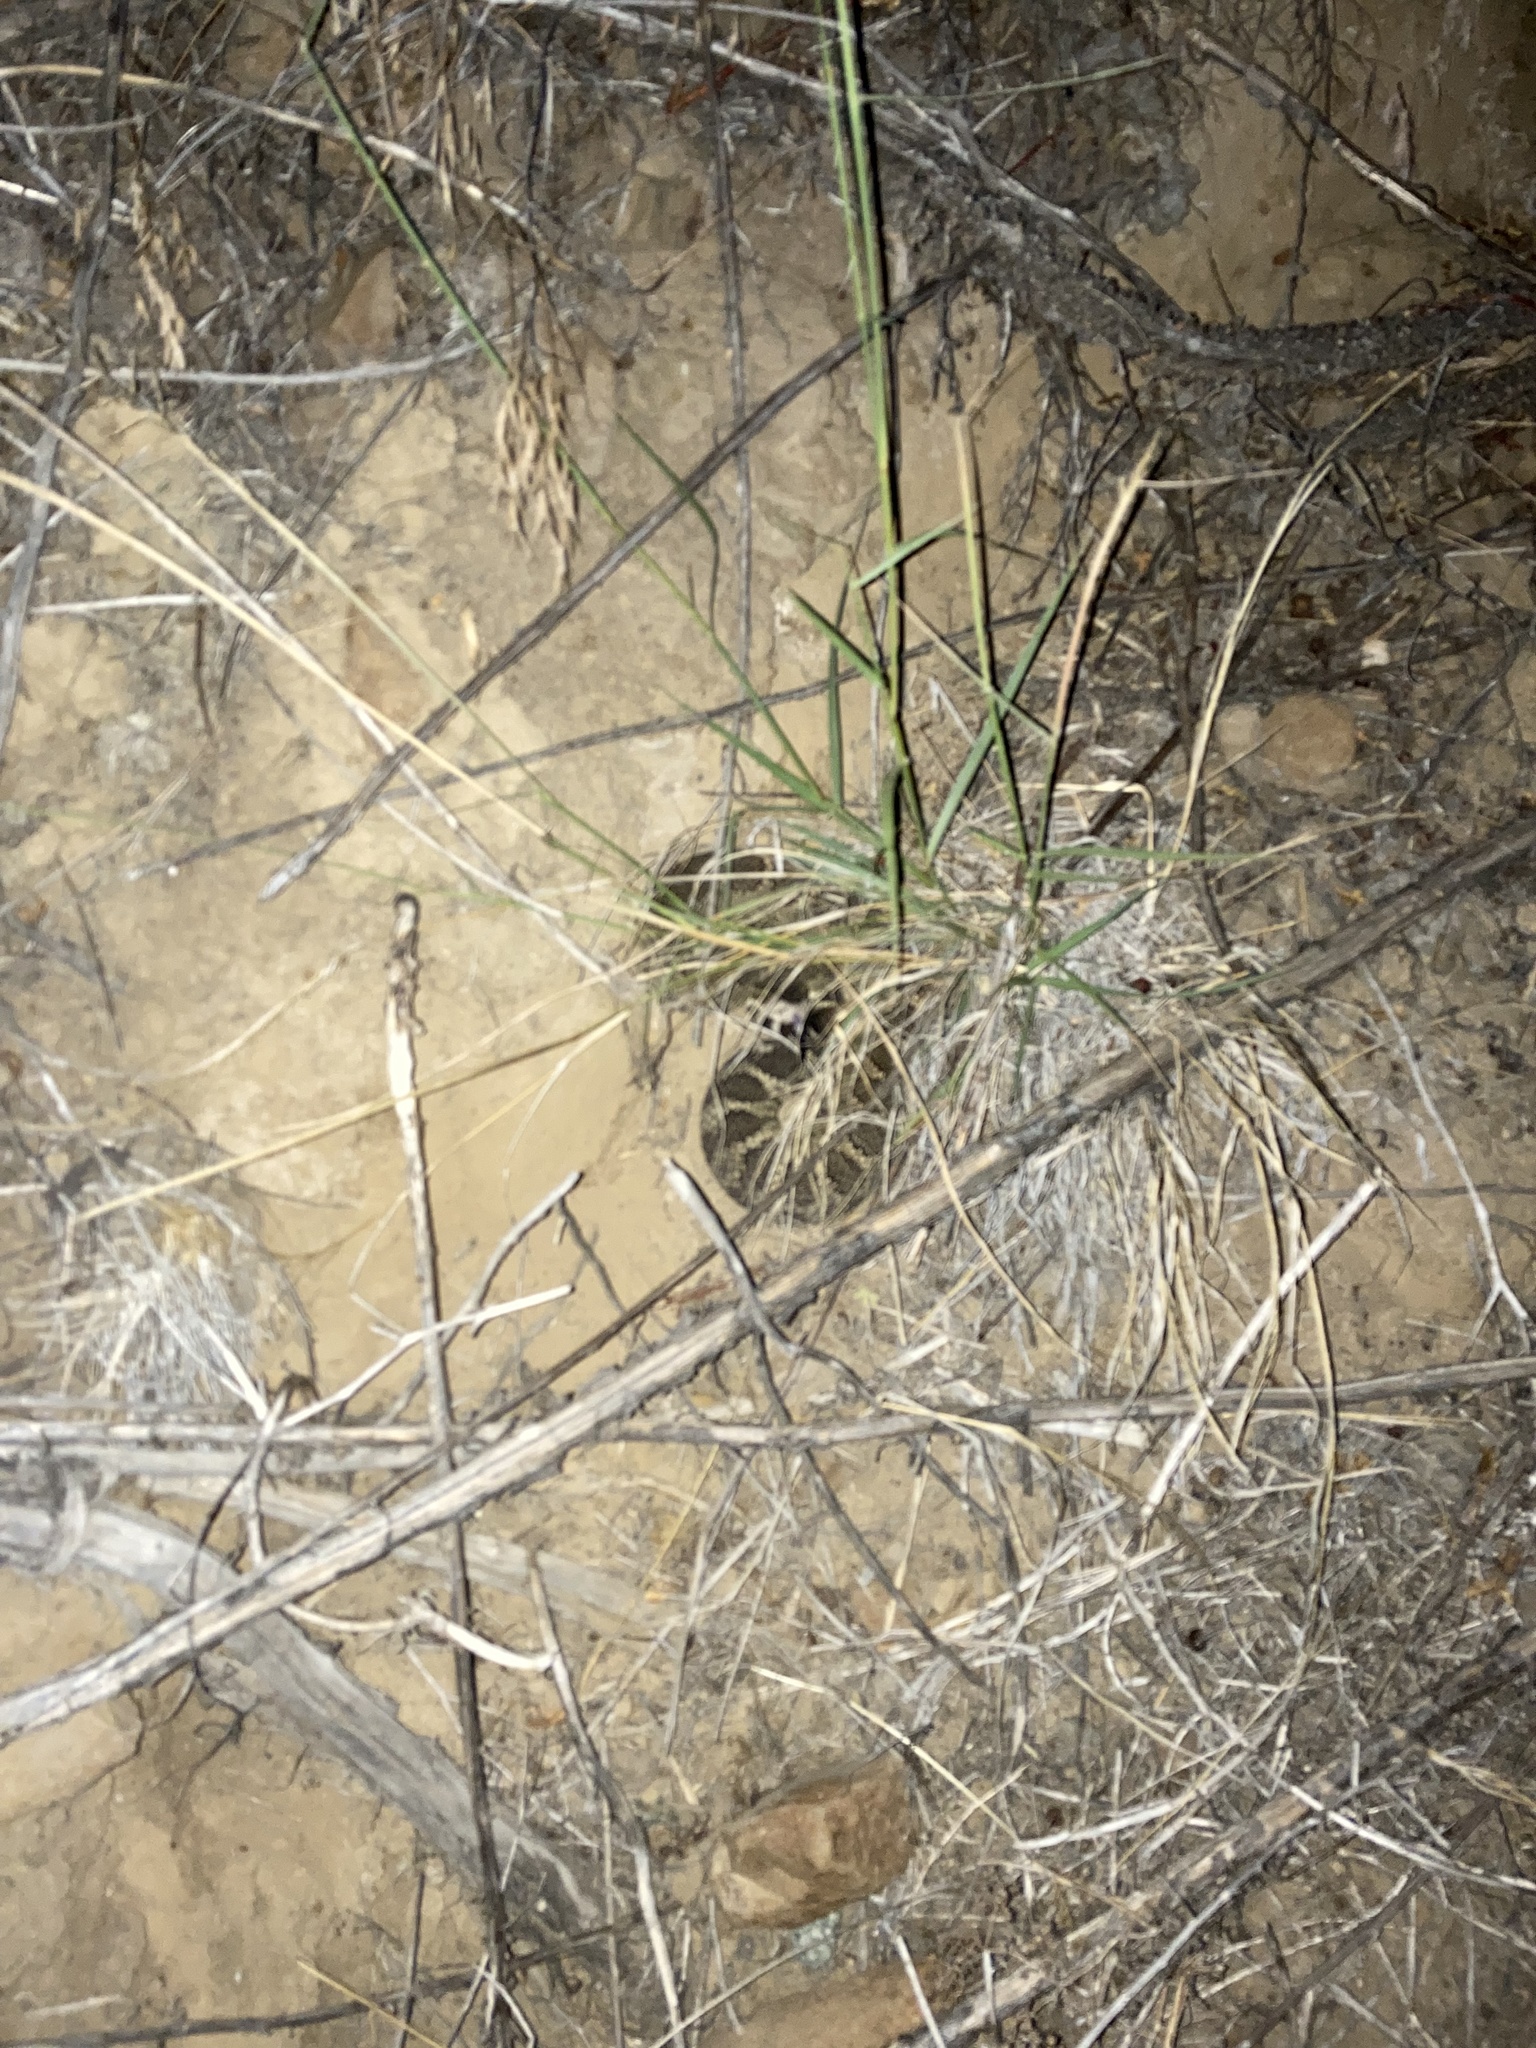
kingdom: Animalia
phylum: Chordata
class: Squamata
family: Viperidae
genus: Crotalus
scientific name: Crotalus oreganus
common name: Abyssus
